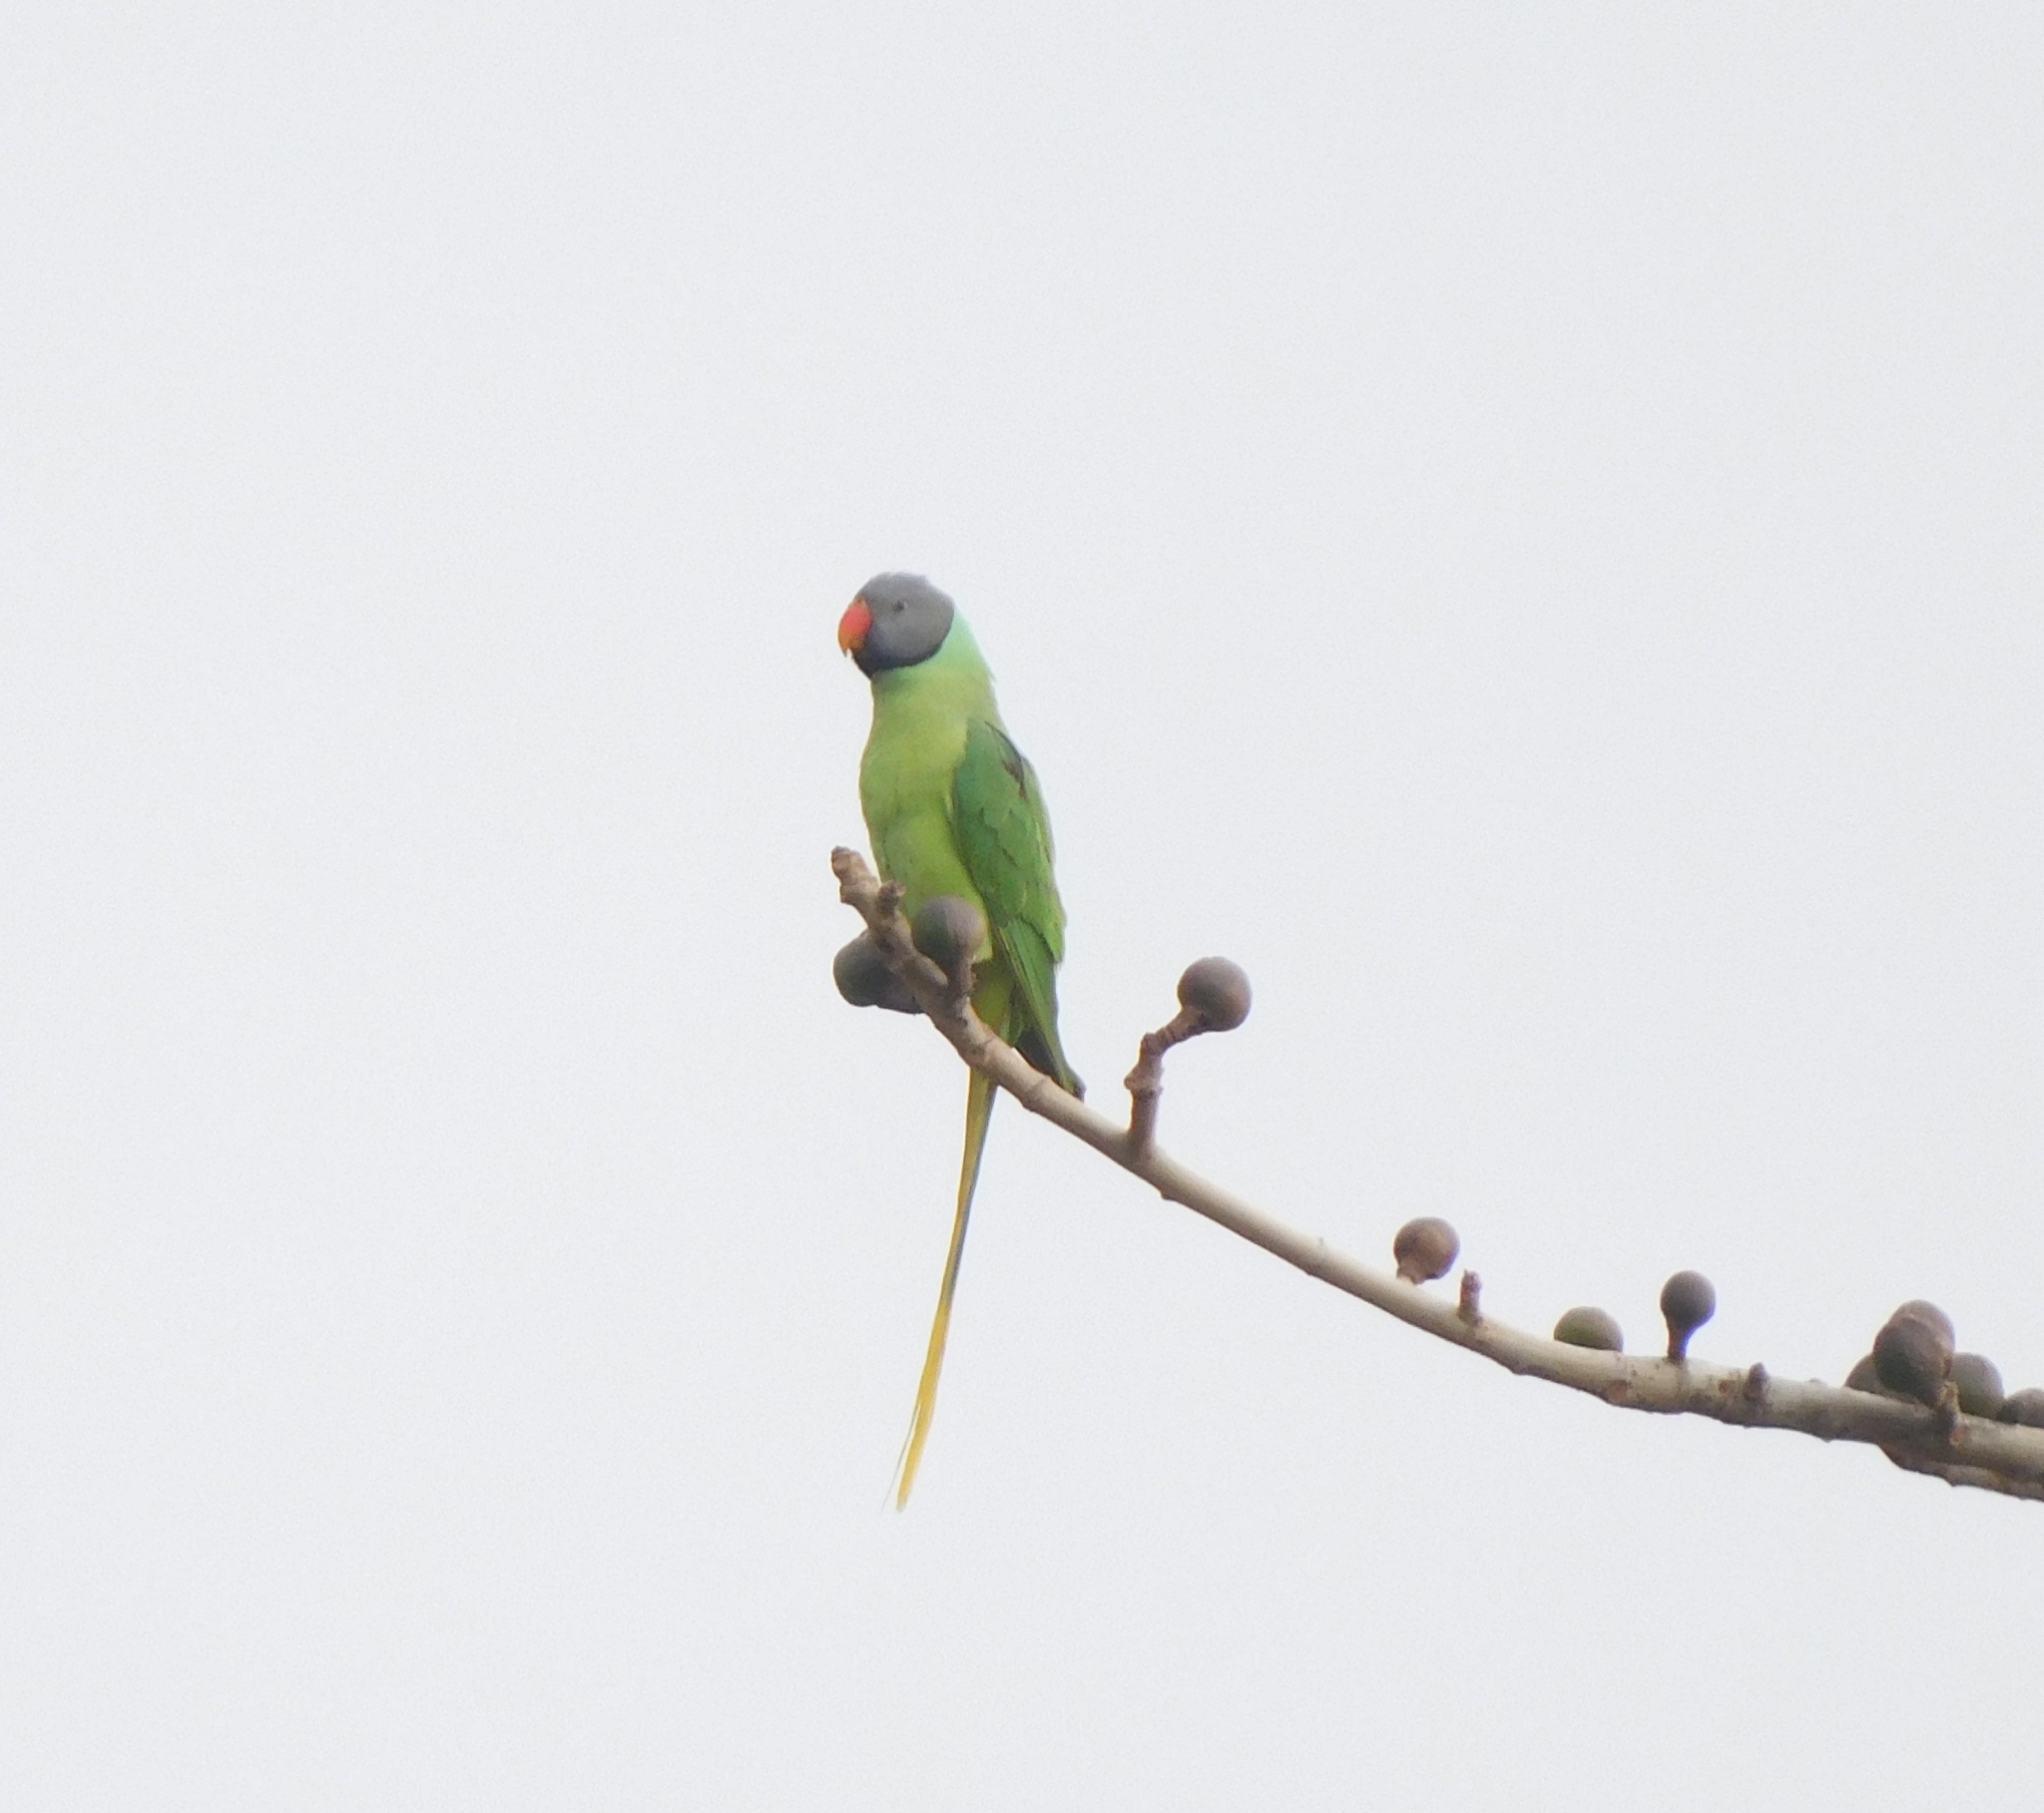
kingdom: Animalia
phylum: Chordata
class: Aves
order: Psittaciformes
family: Psittacidae
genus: Psittacula
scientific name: Psittacula himalayana
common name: Slaty-headed parakeet
